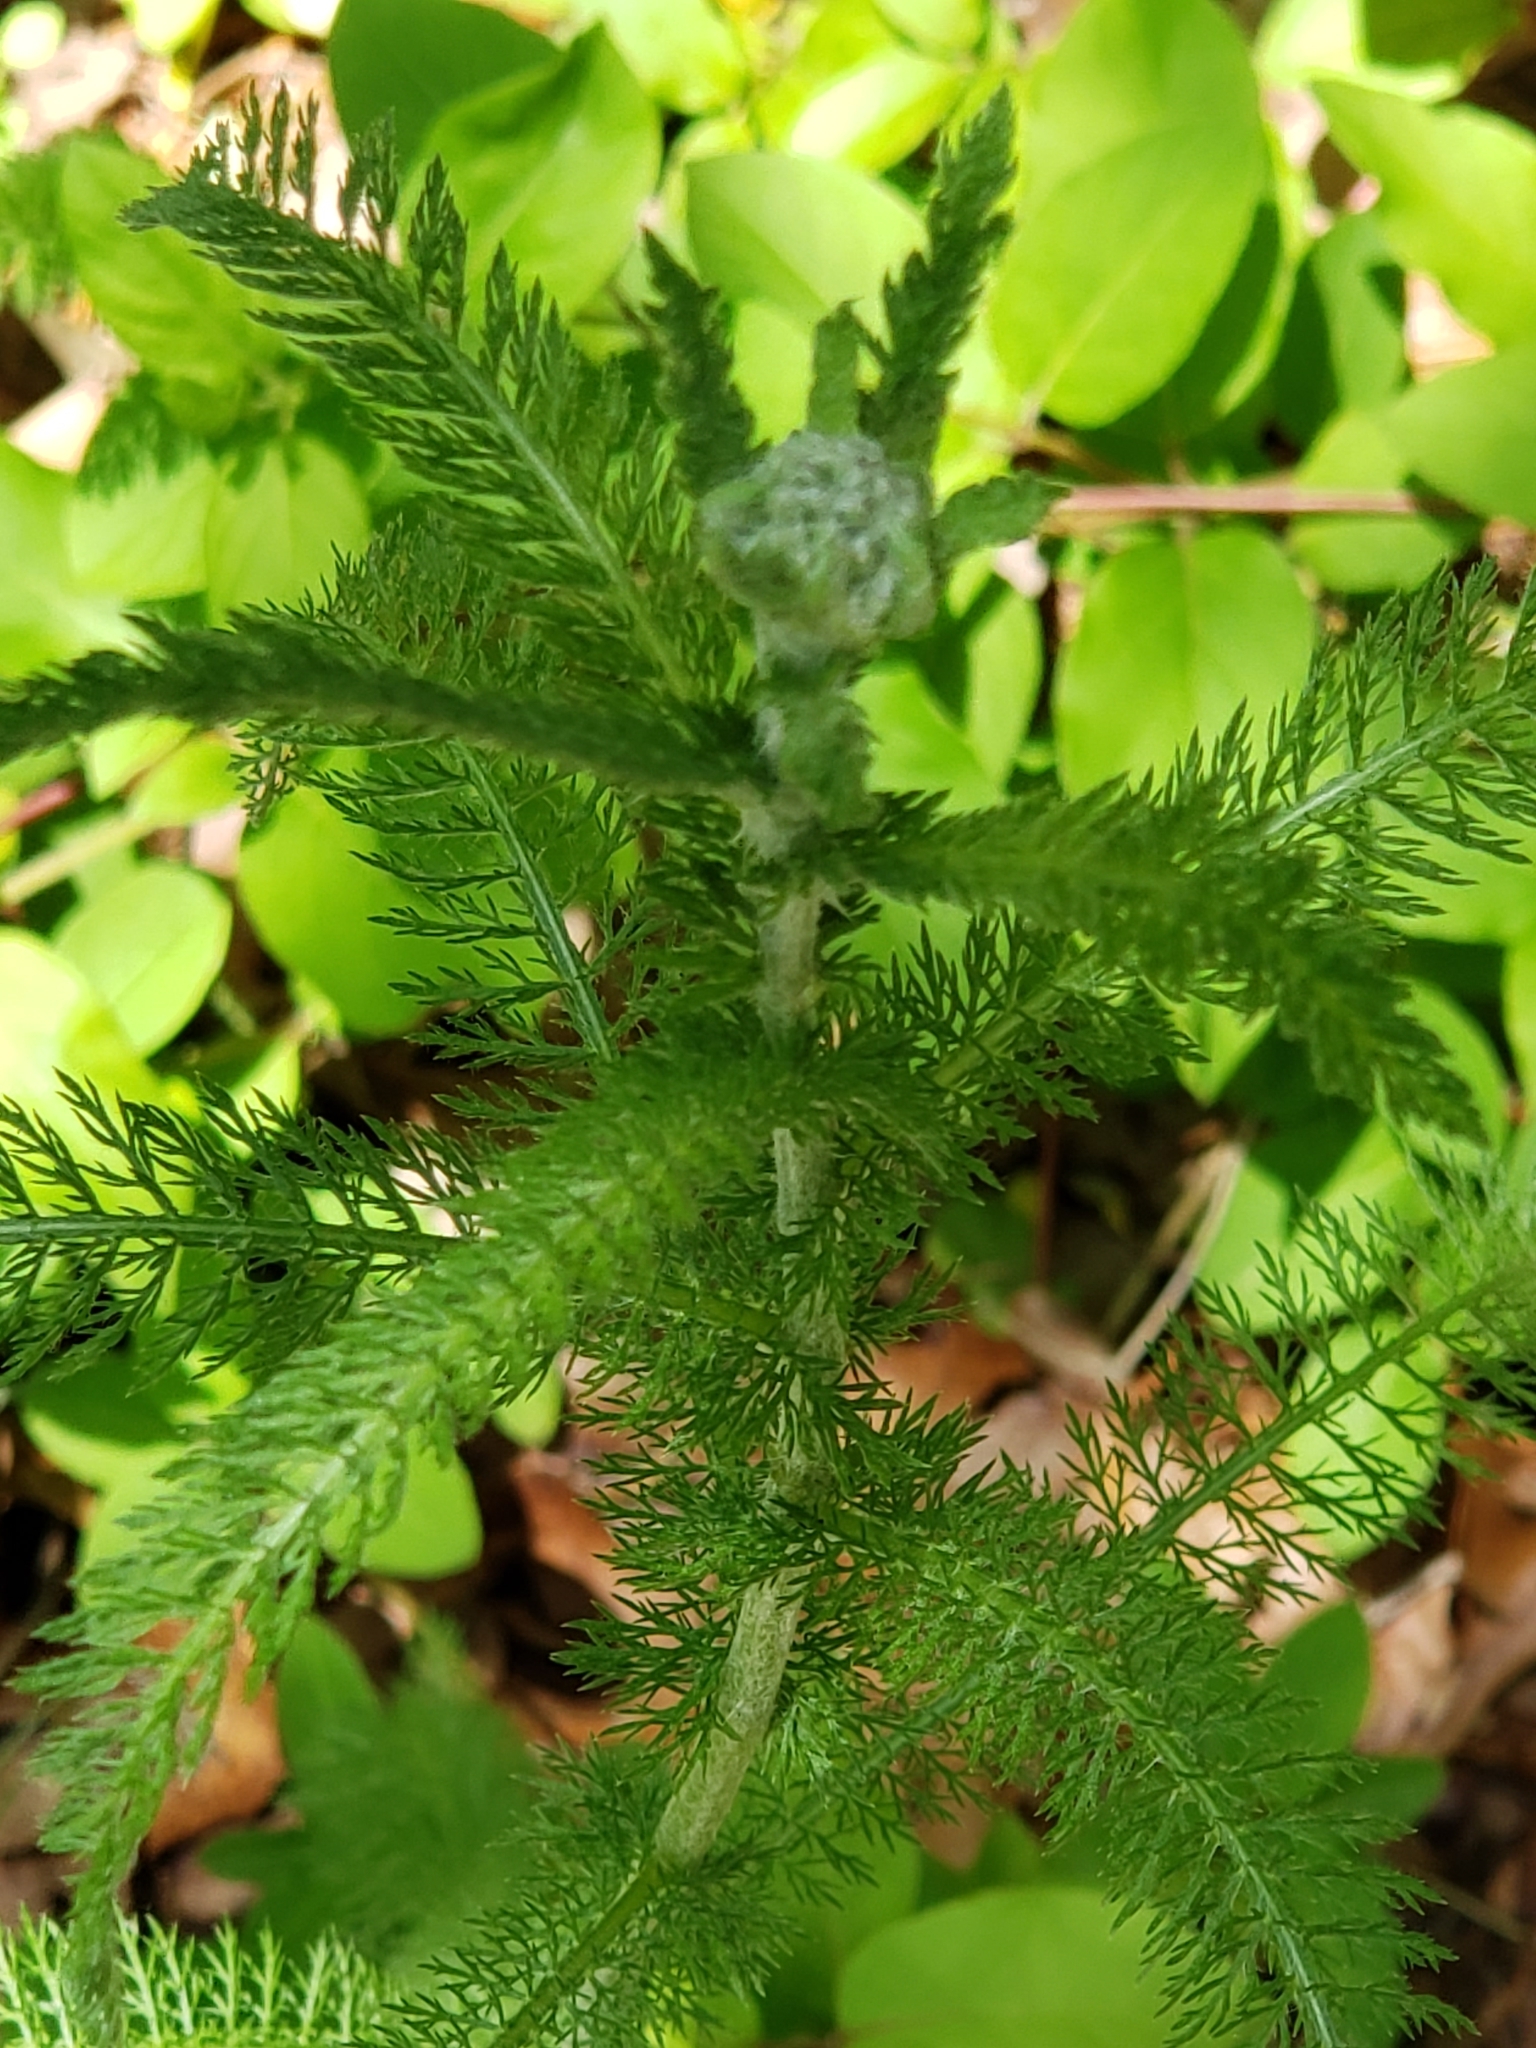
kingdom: Plantae
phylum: Tracheophyta
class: Magnoliopsida
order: Asterales
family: Asteraceae
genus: Achillea
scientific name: Achillea millefolium
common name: Yarrow
